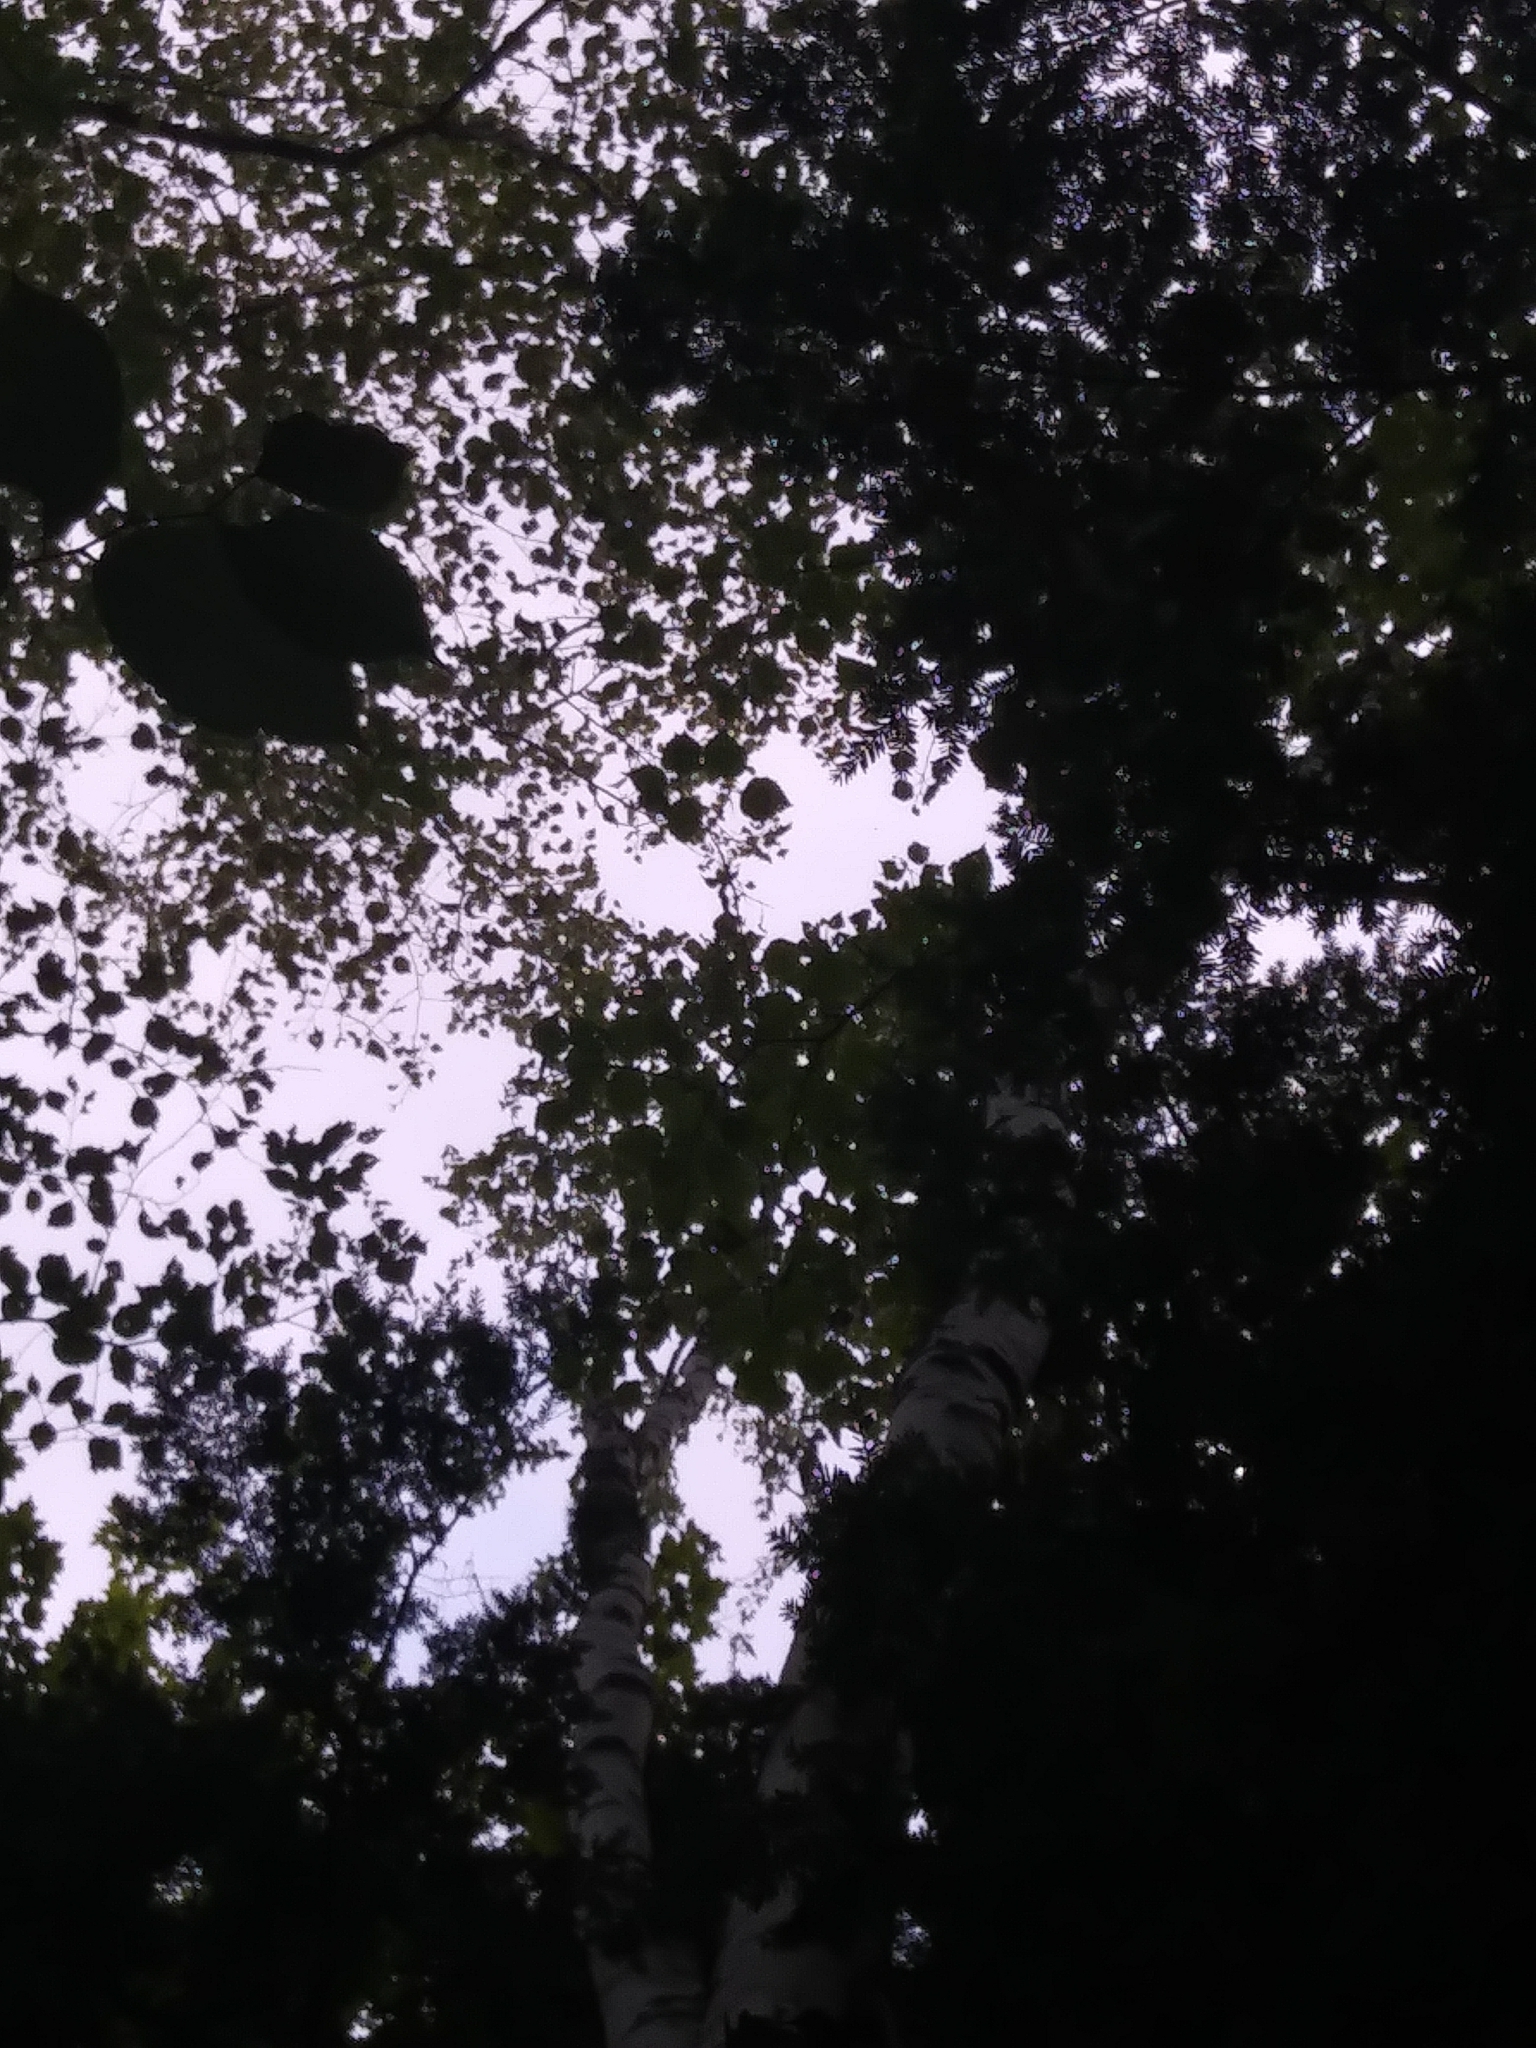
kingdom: Plantae
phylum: Tracheophyta
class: Magnoliopsida
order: Fagales
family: Betulaceae
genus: Betula
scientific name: Betula cordifolia
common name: Mountain white birch
